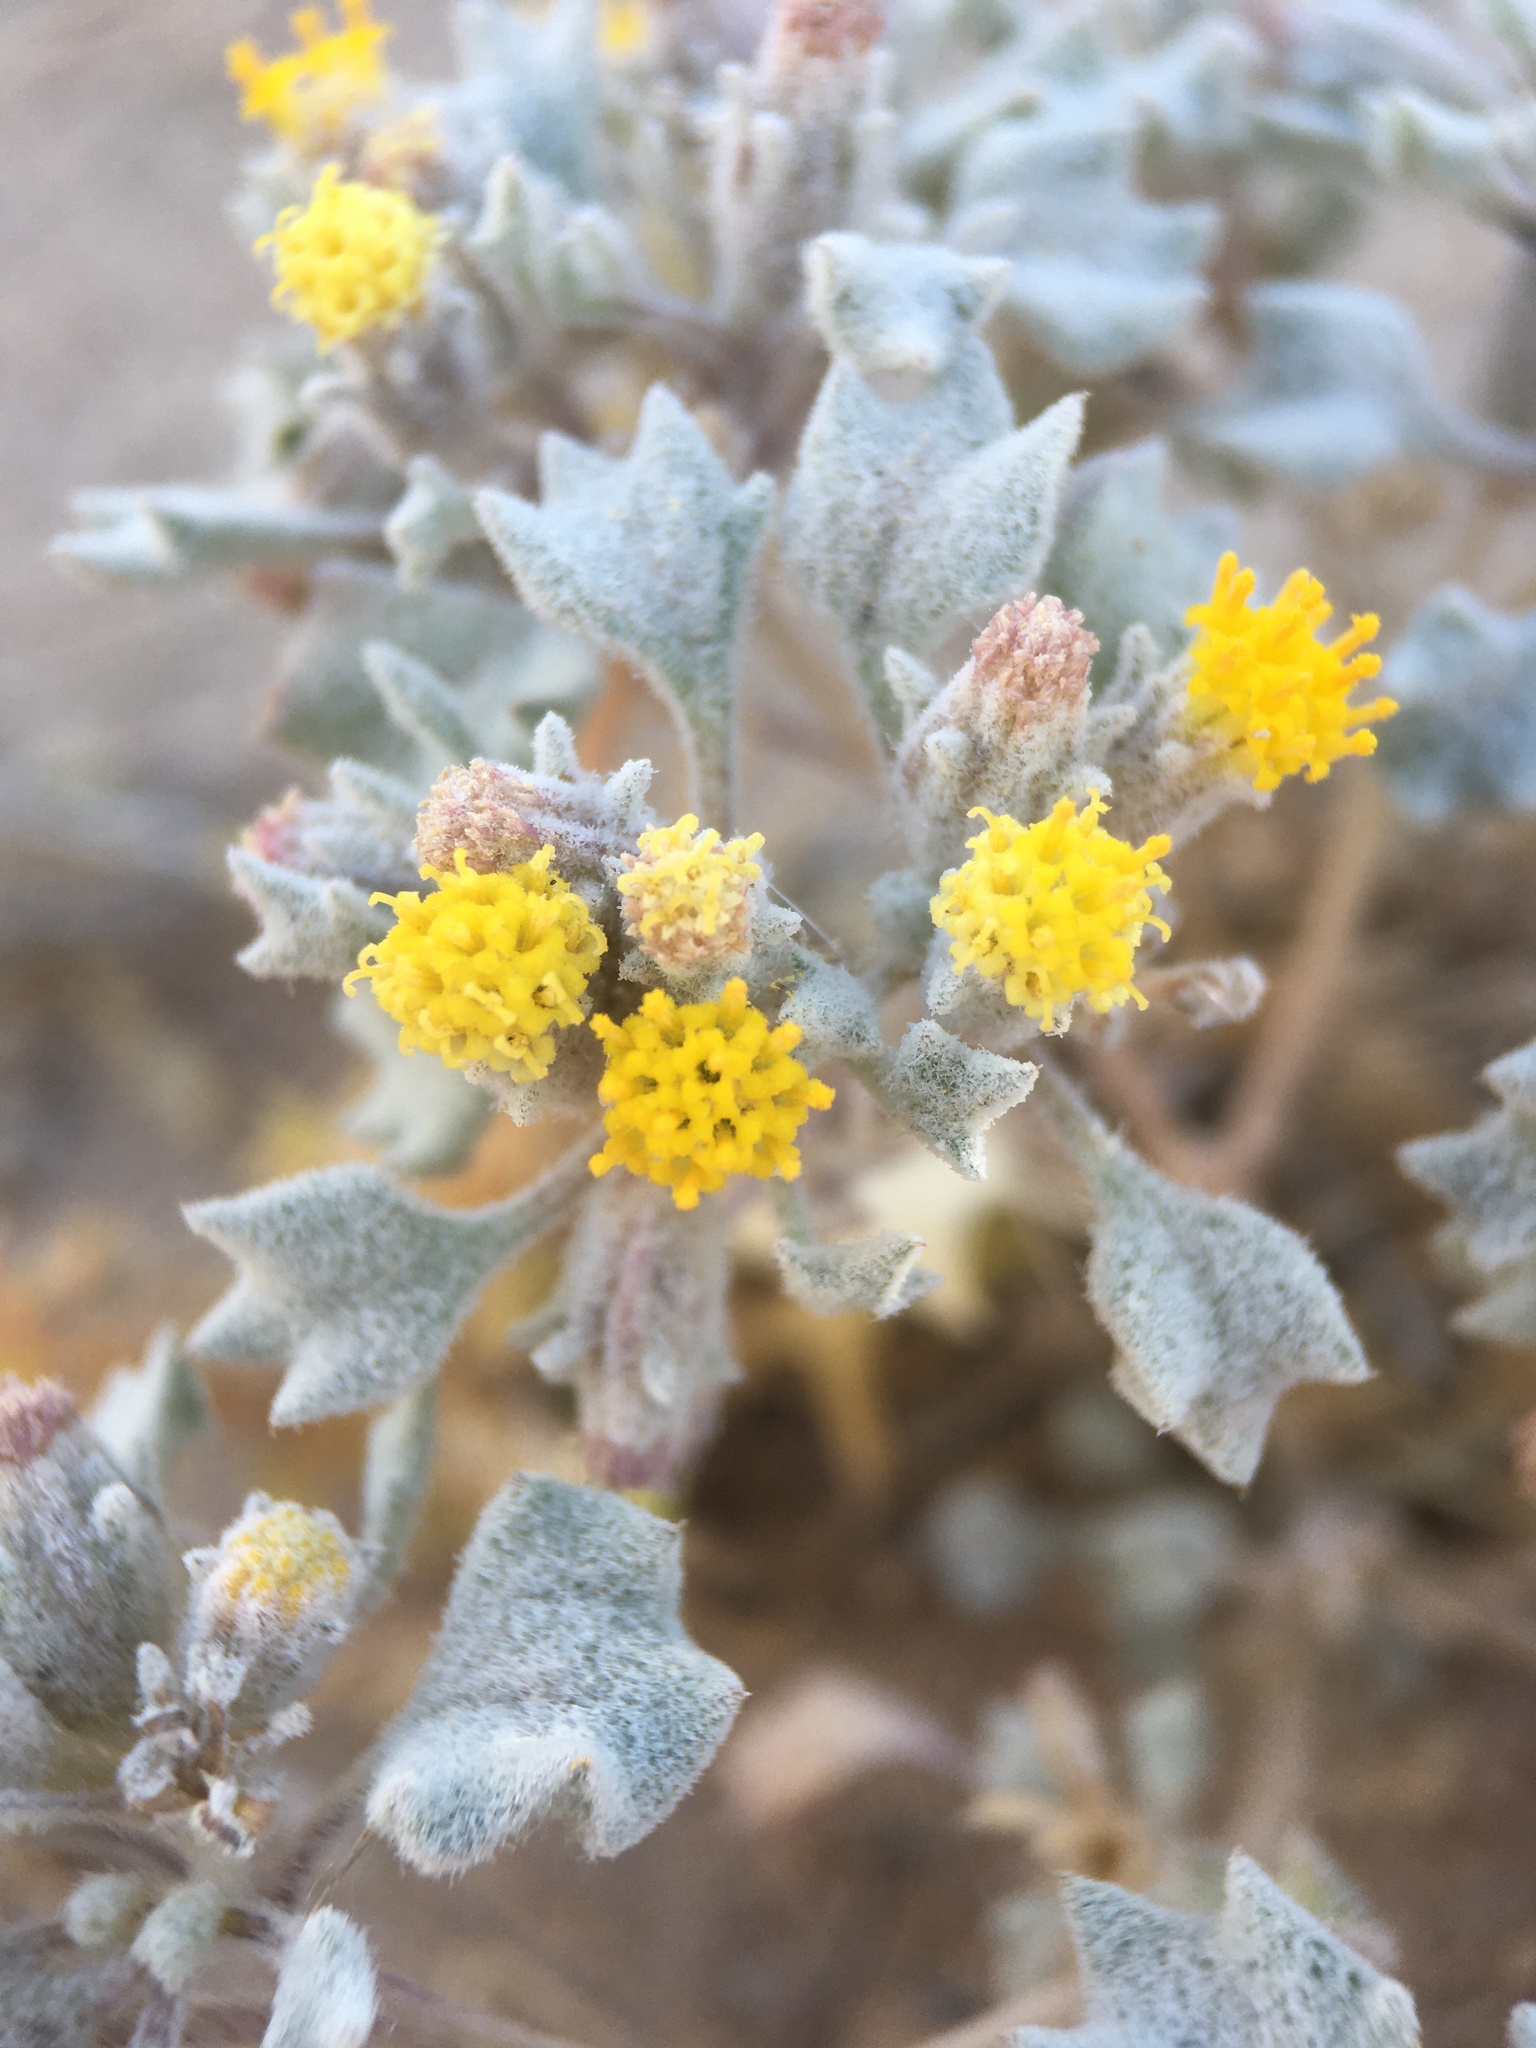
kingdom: Plantae
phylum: Tracheophyta
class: Magnoliopsida
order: Asterales
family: Asteraceae
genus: Psathyrotes
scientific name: Psathyrotes annua
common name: Mealy rosettes
